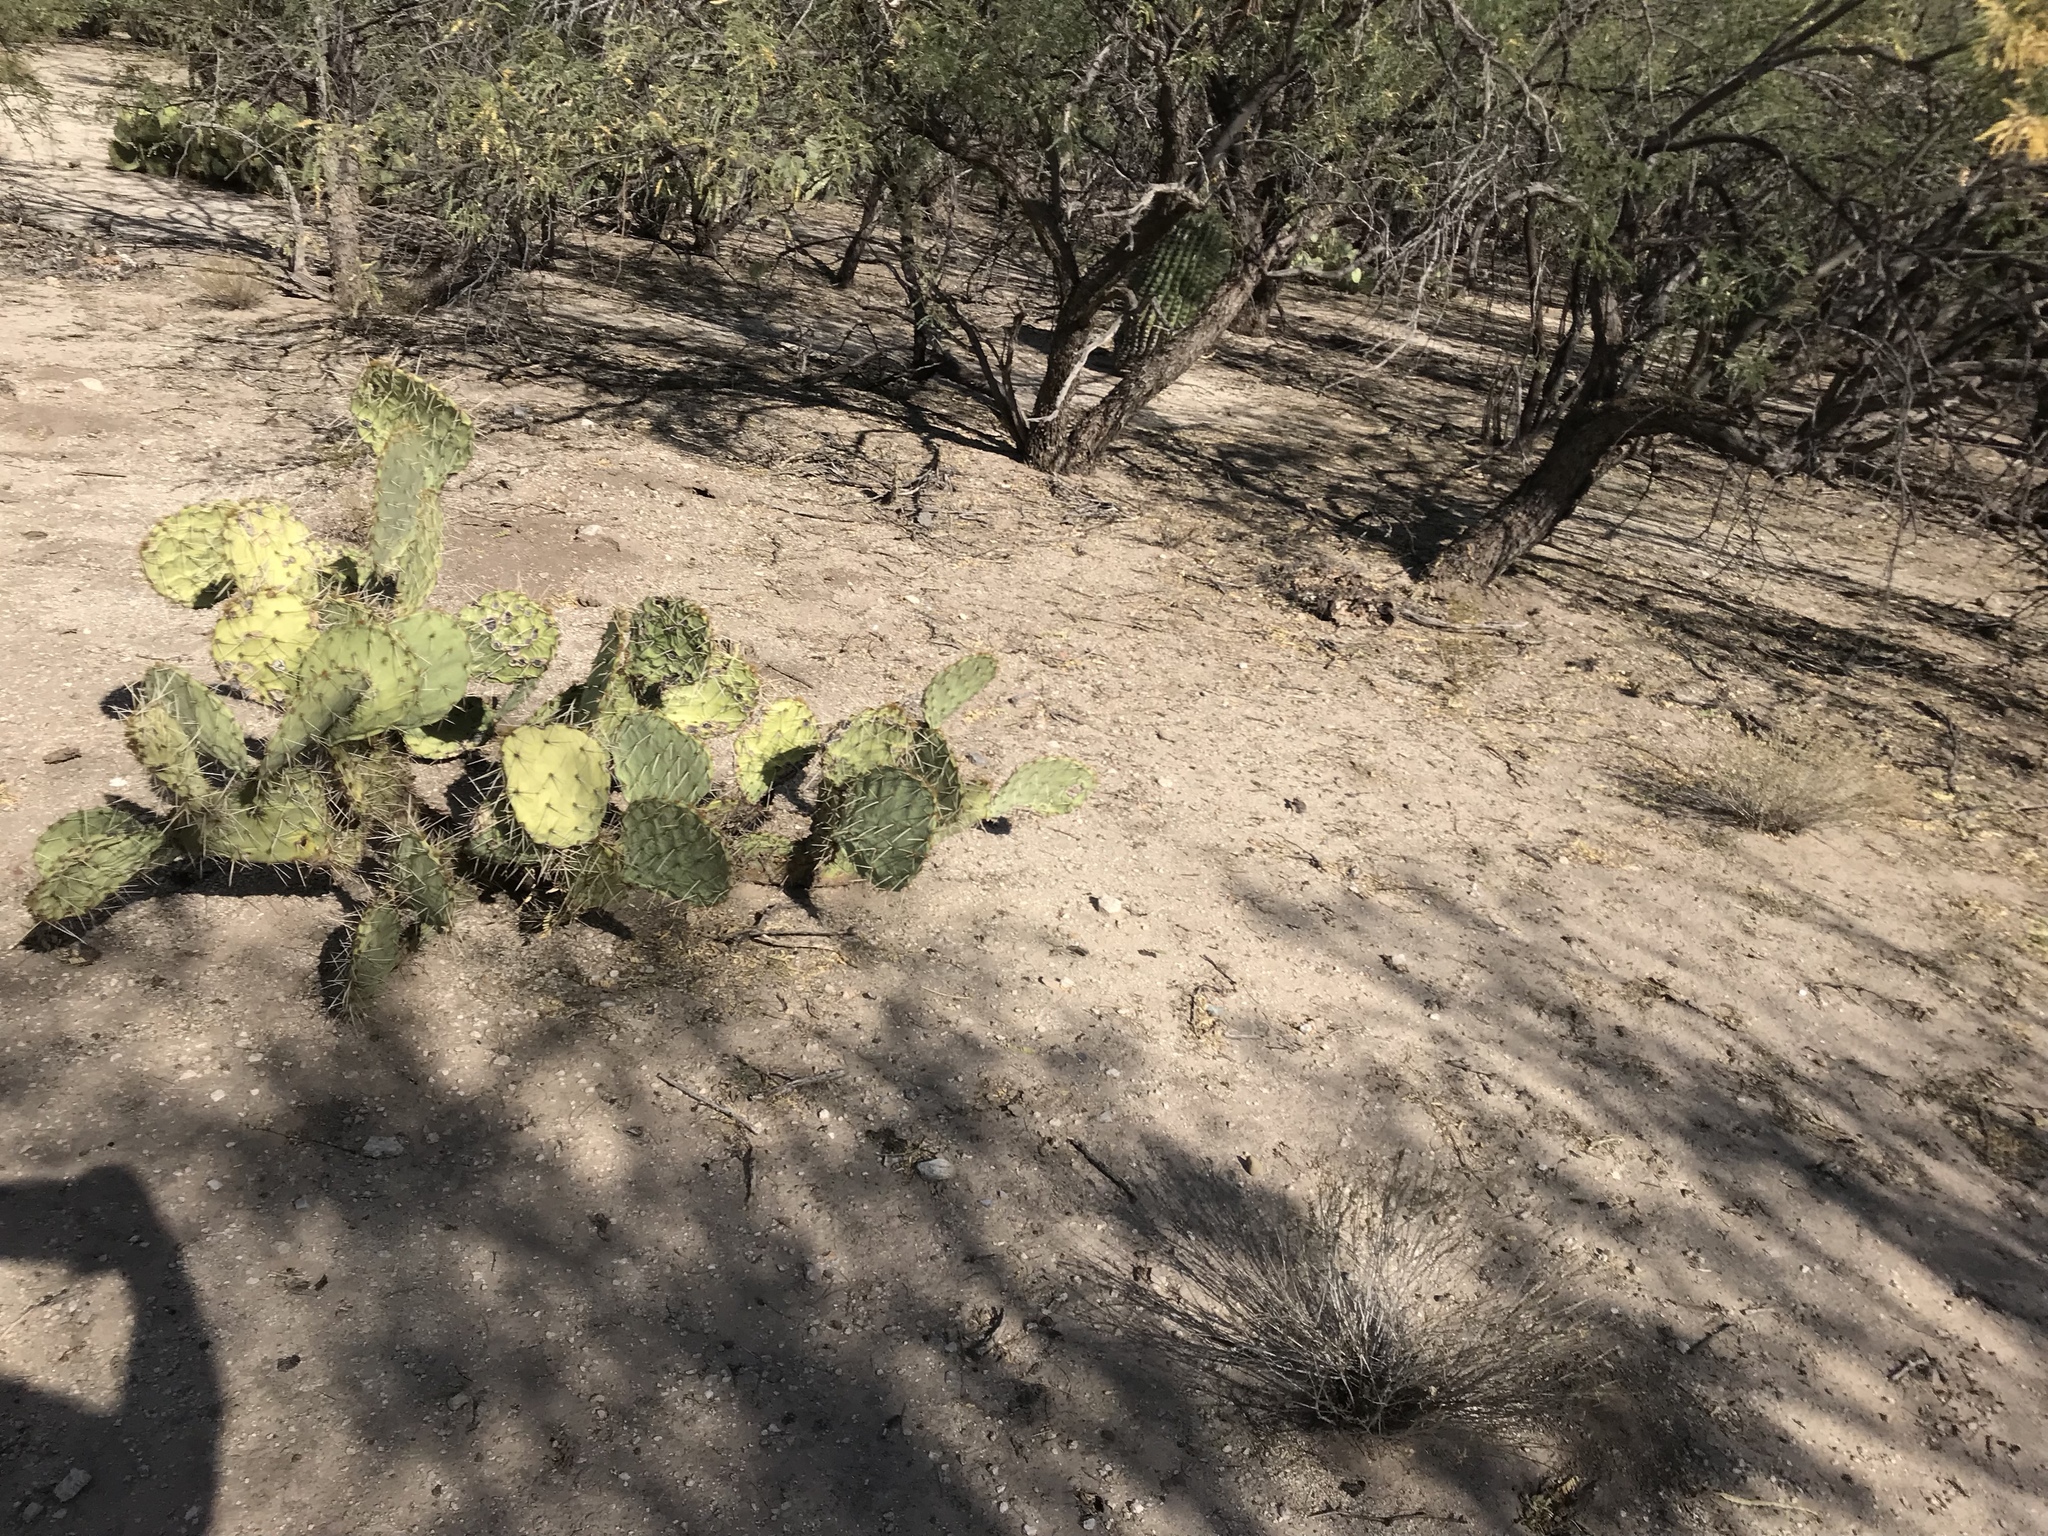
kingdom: Plantae
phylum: Tracheophyta
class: Magnoliopsida
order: Caryophyllales
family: Cactaceae
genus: Opuntia
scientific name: Opuntia phaeacantha
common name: New mexico prickly-pear
